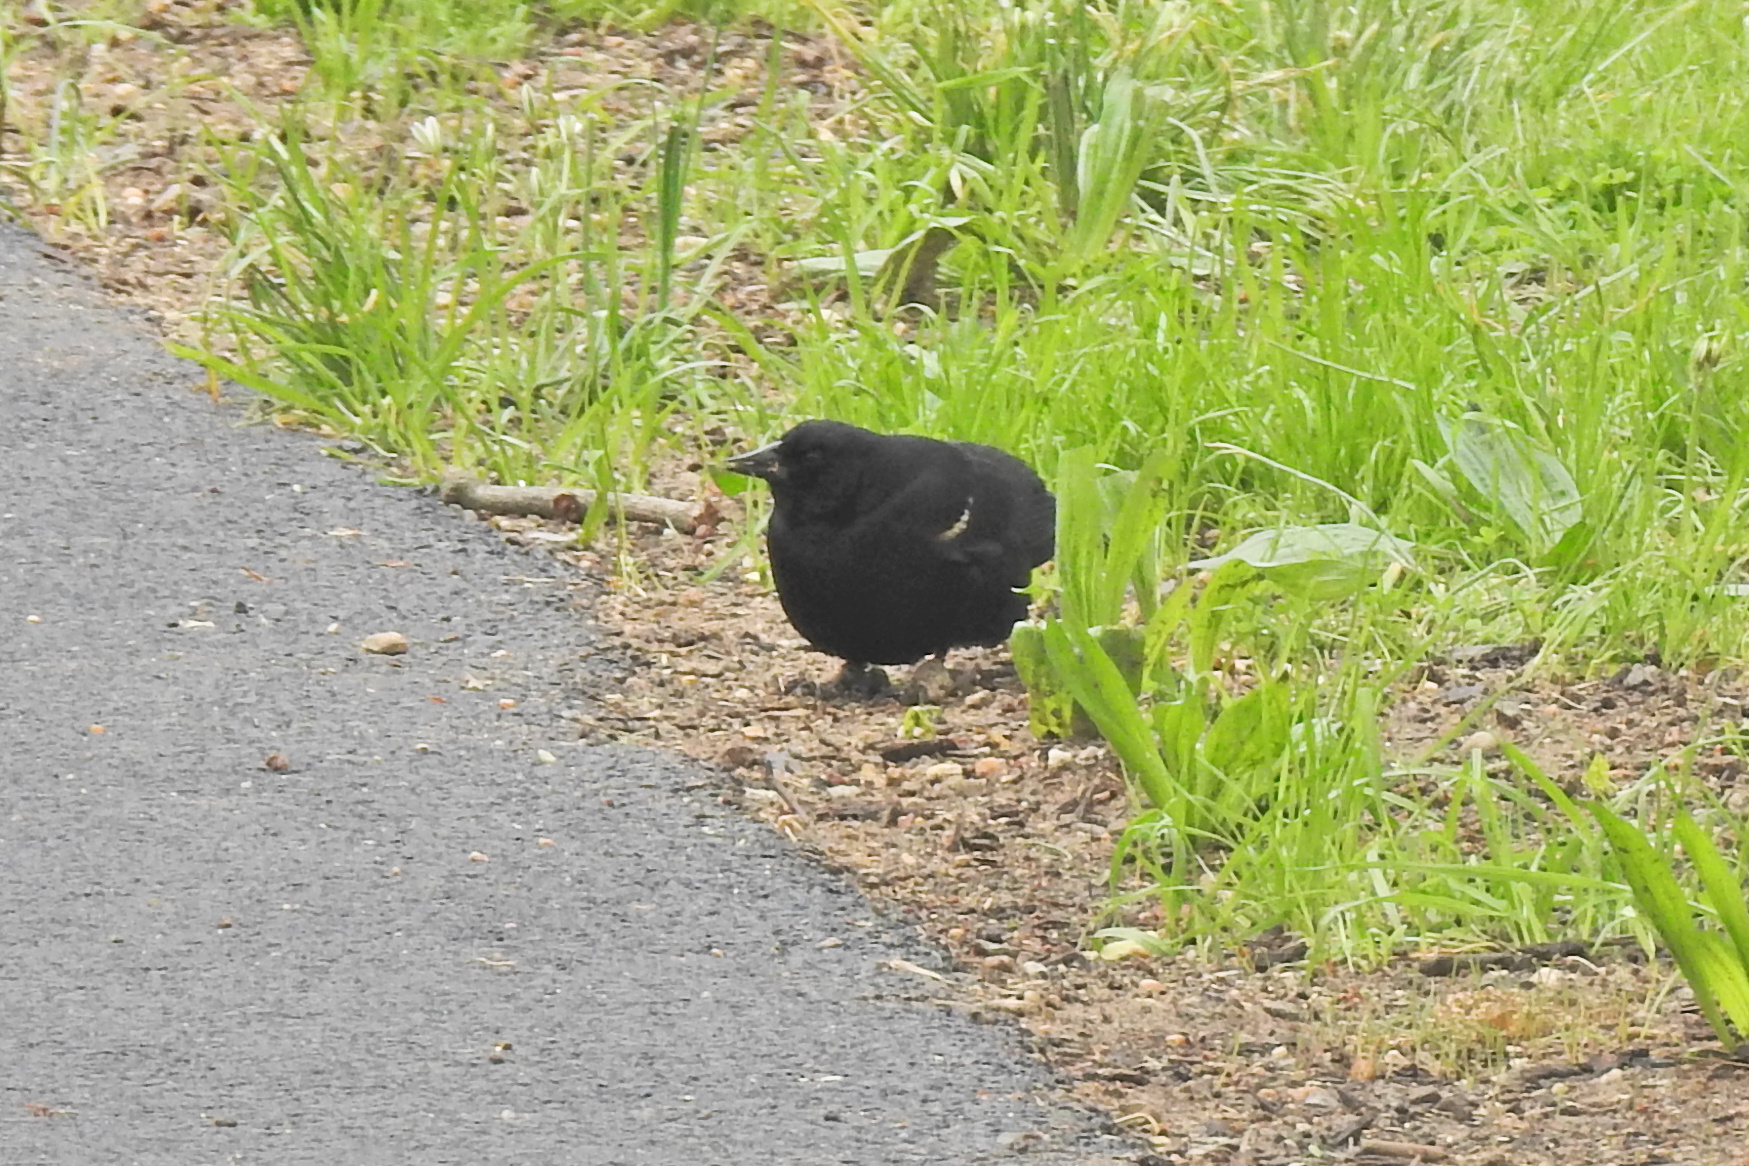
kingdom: Animalia
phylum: Chordata
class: Aves
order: Passeriformes
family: Icteridae
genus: Agelaius
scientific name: Agelaius phoeniceus
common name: Red-winged blackbird
